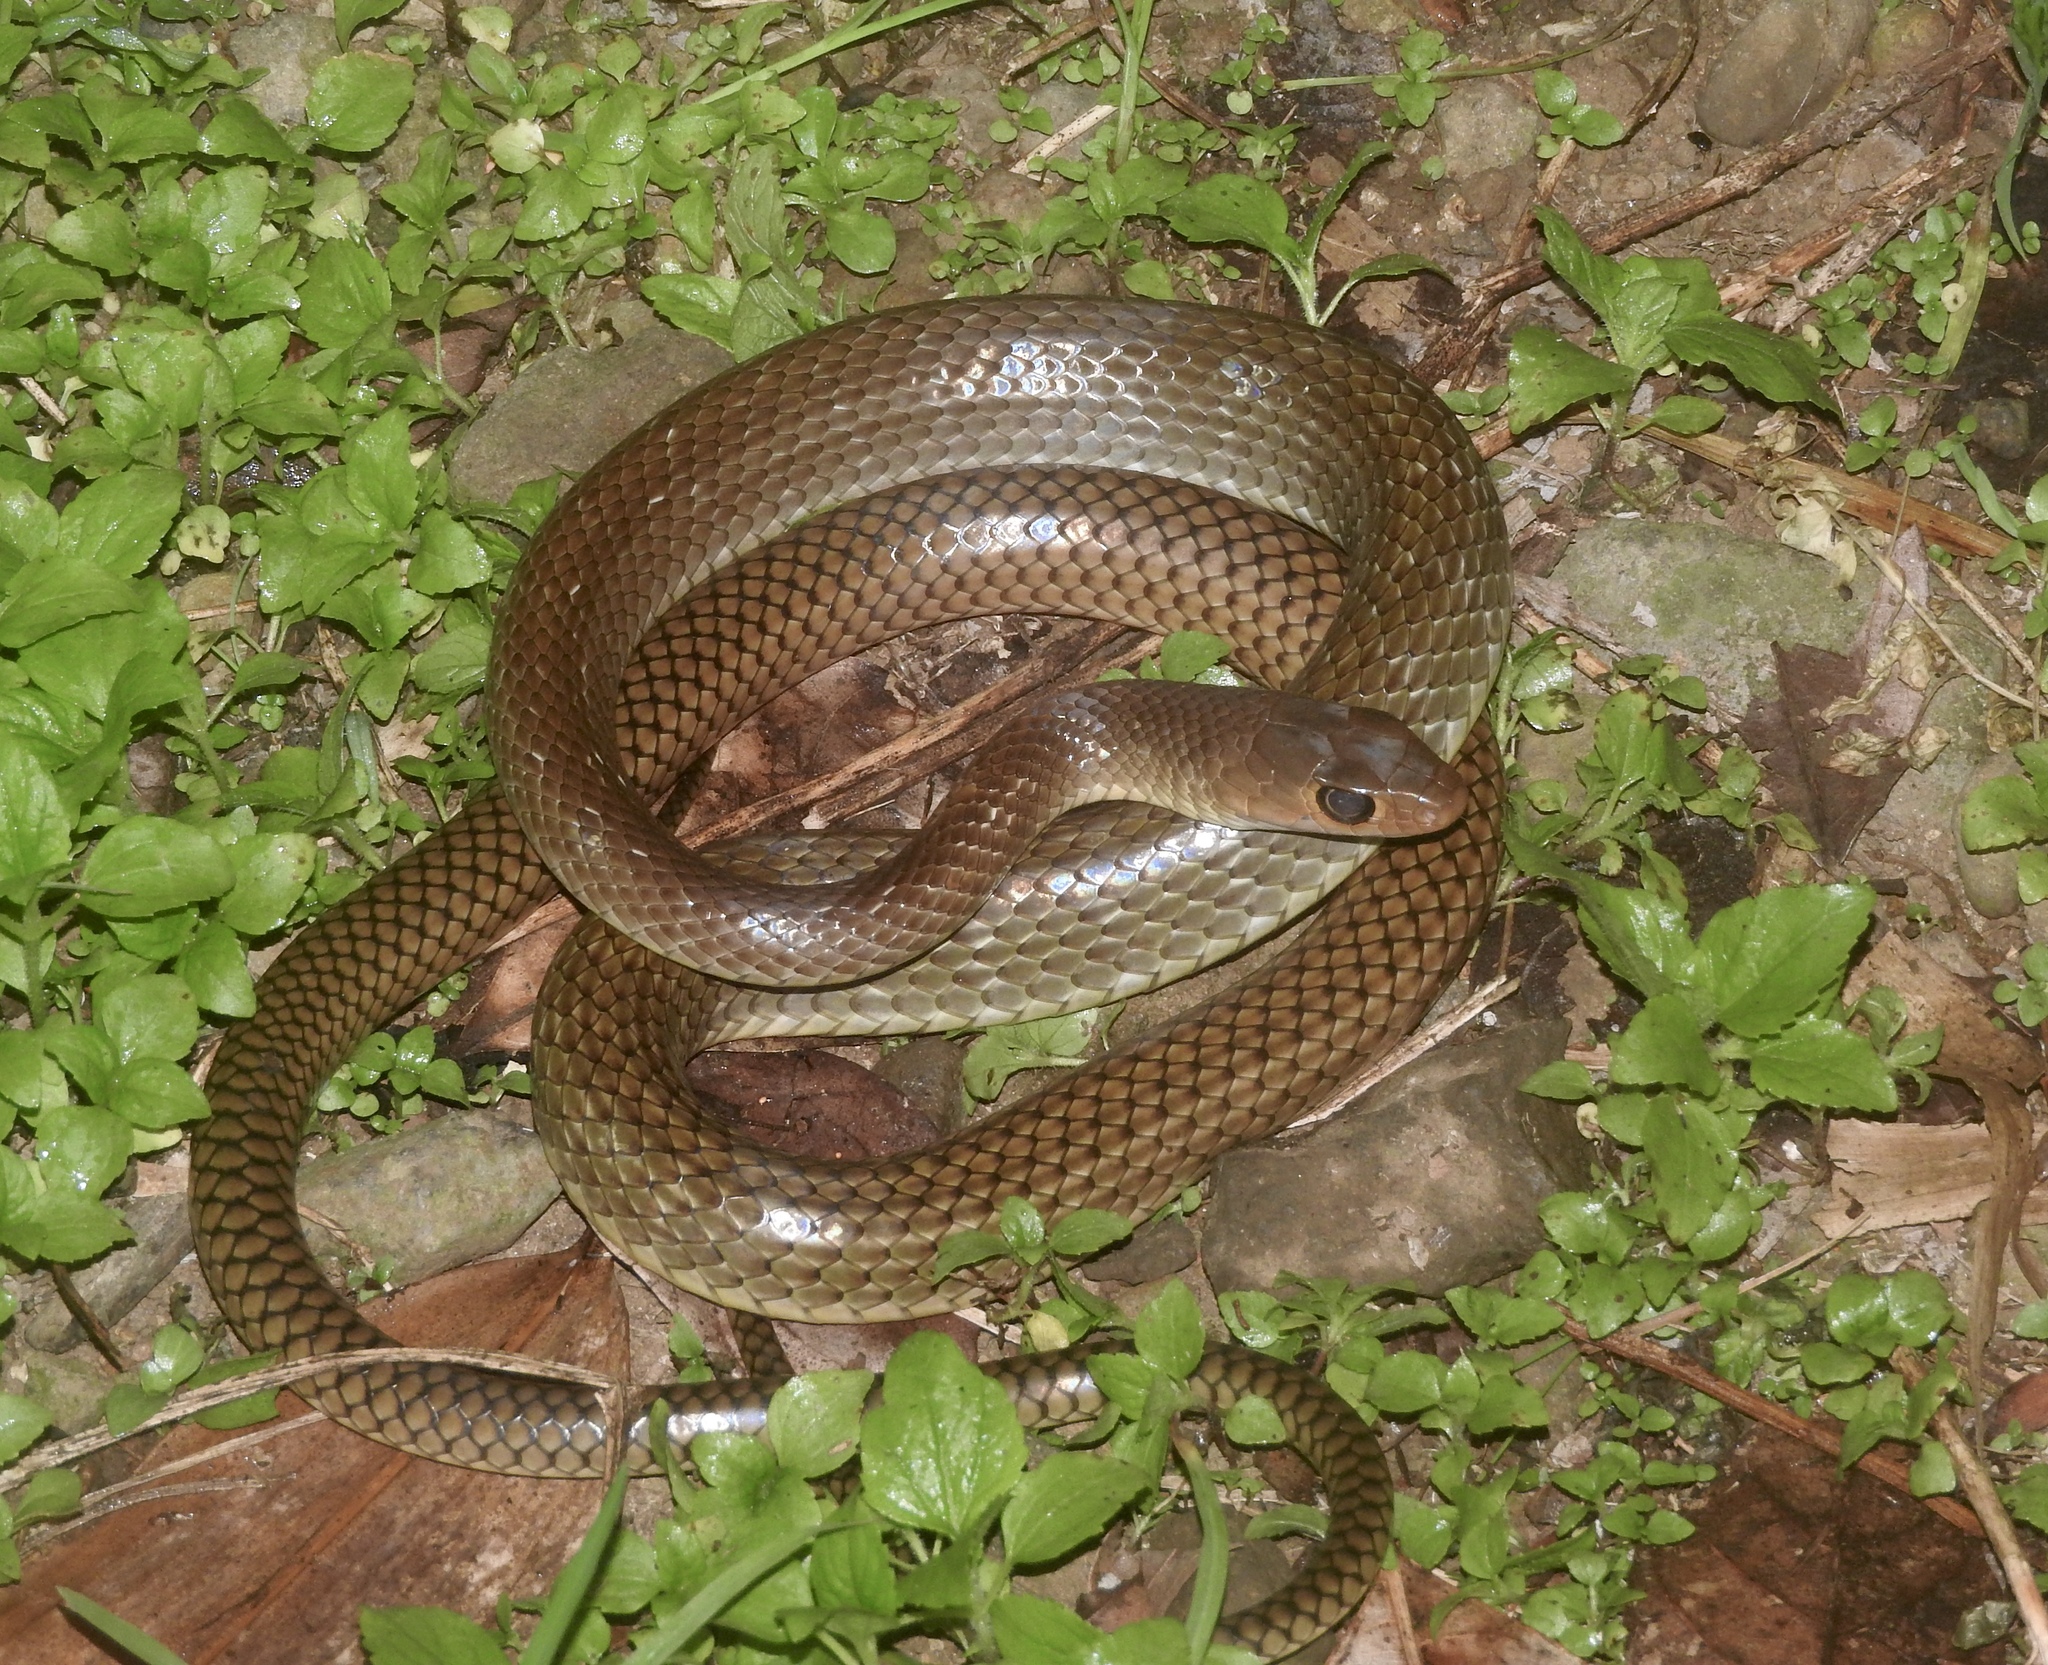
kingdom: Animalia
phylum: Chordata
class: Squamata
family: Colubridae
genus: Ptyas
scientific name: Ptyas korros
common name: Indo-chinese rat snake
